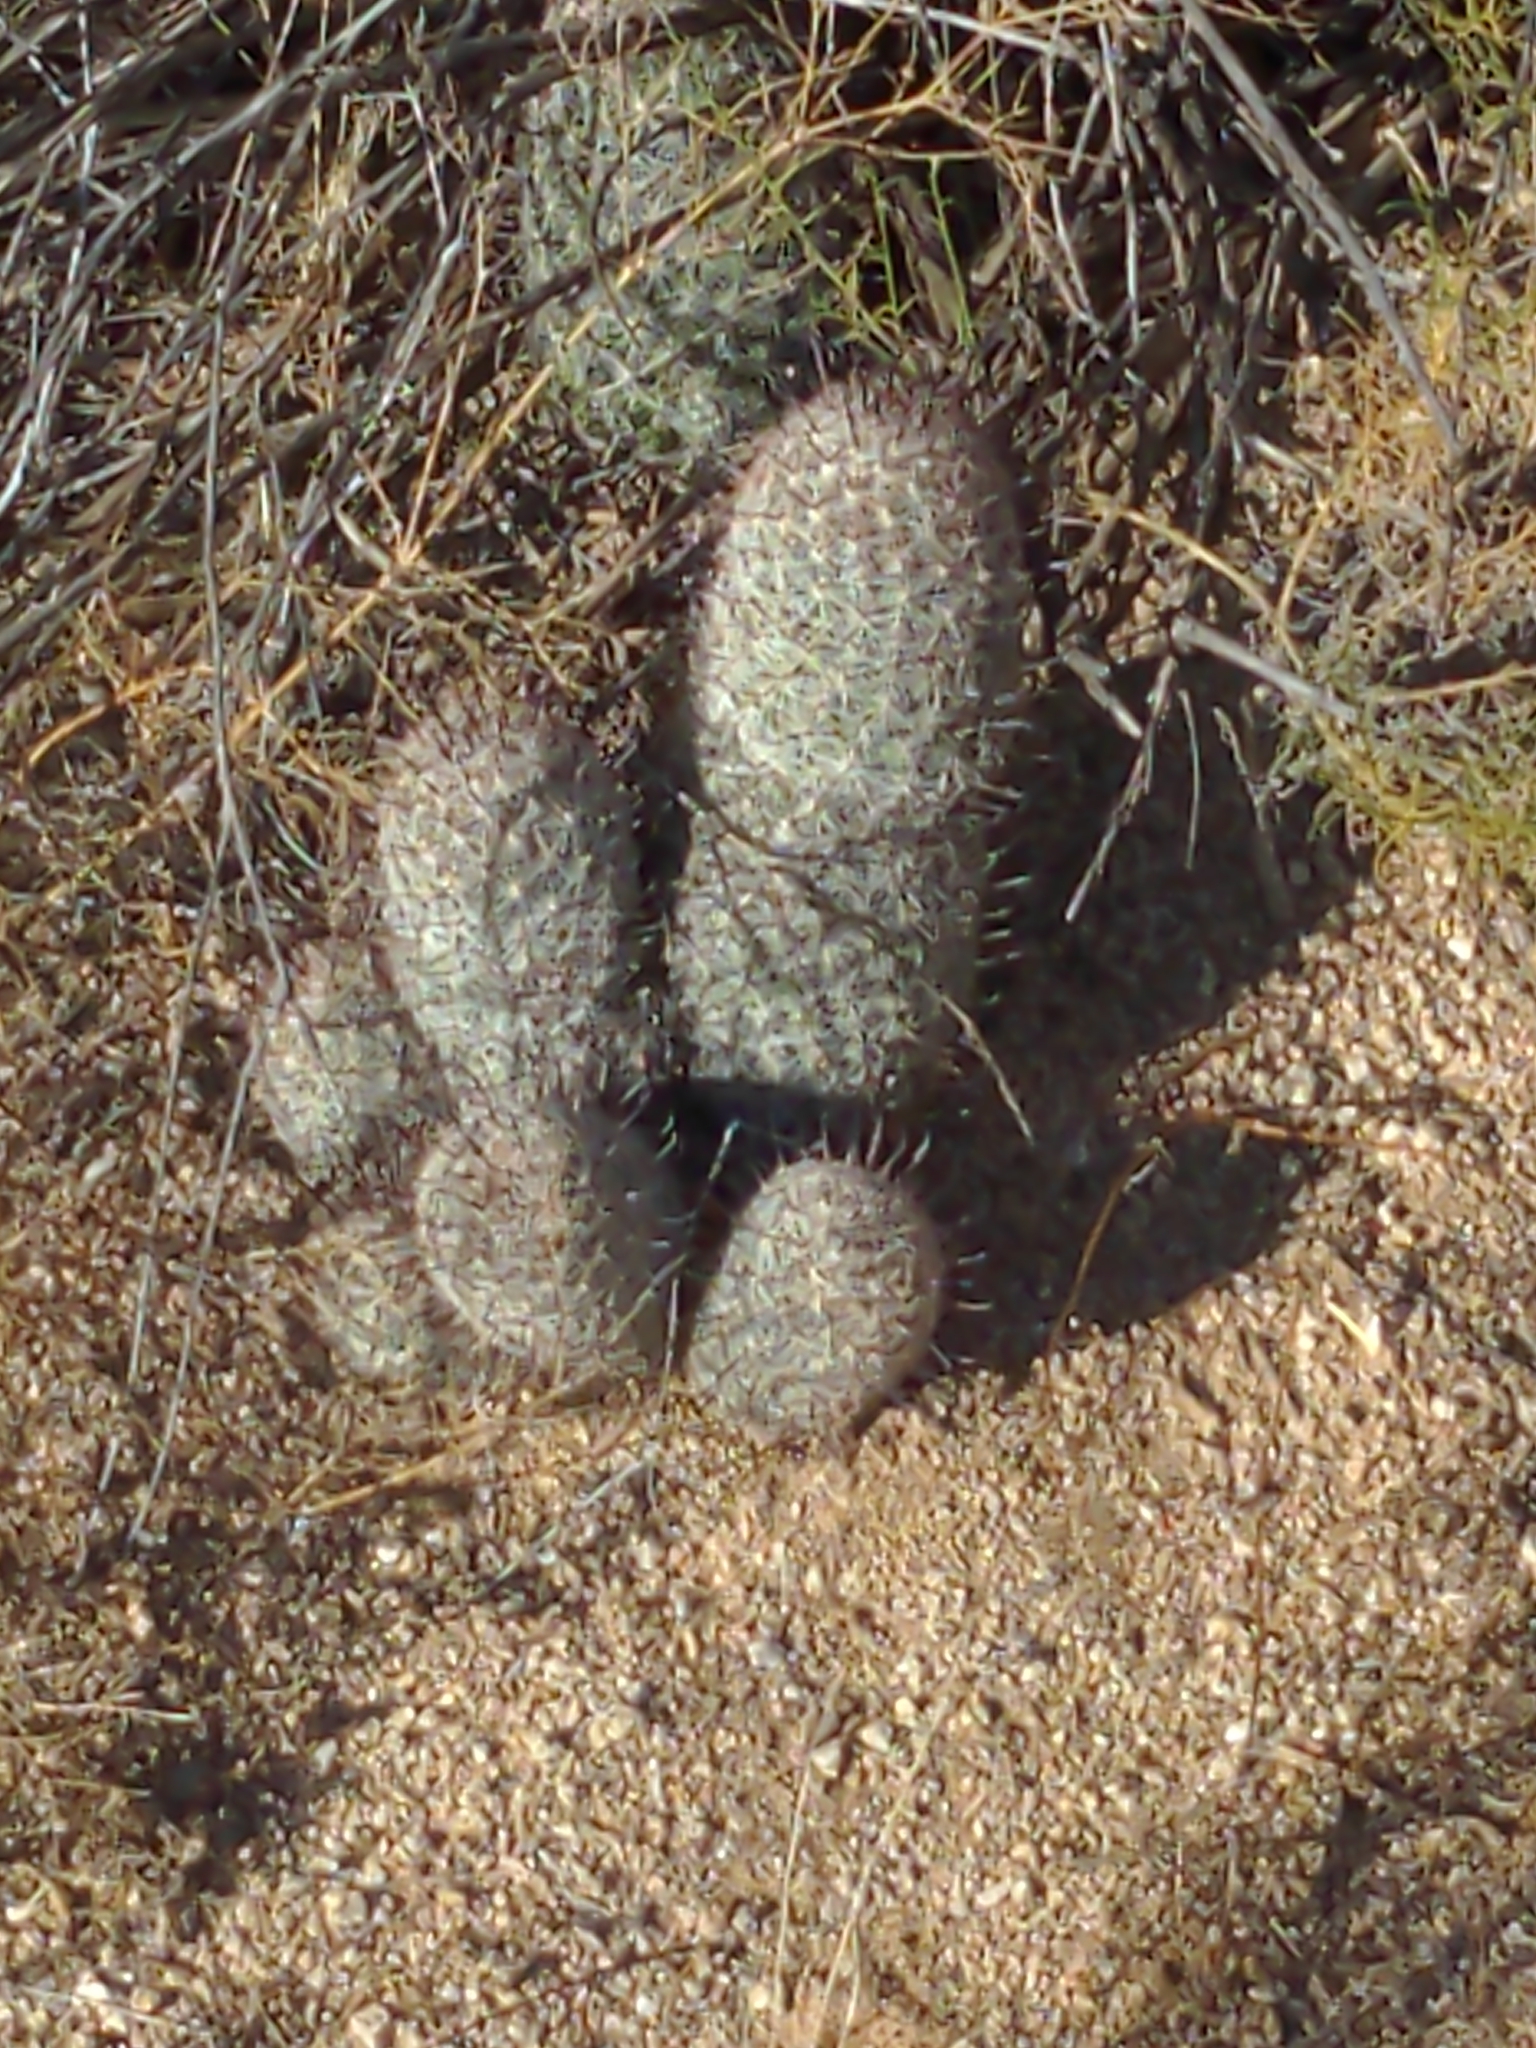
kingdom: Plantae
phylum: Tracheophyta
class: Magnoliopsida
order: Caryophyllales
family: Cactaceae
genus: Cochemiea
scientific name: Cochemiea grahamii
